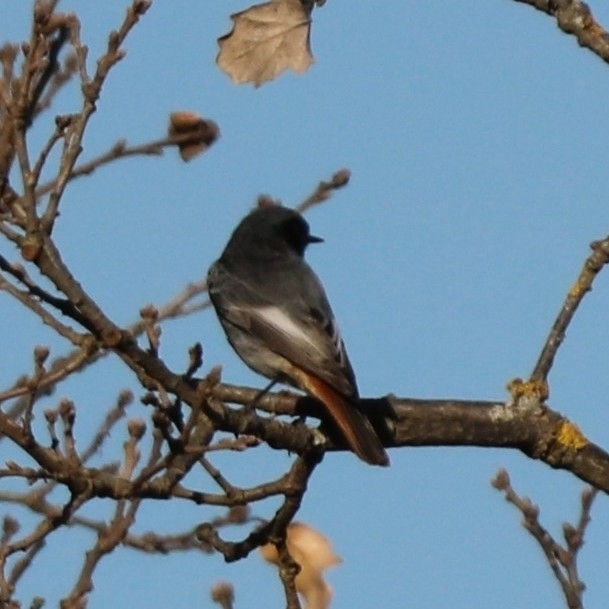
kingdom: Animalia
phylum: Chordata
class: Aves
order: Passeriformes
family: Muscicapidae
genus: Phoenicurus
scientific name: Phoenicurus ochruros
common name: Black redstart
